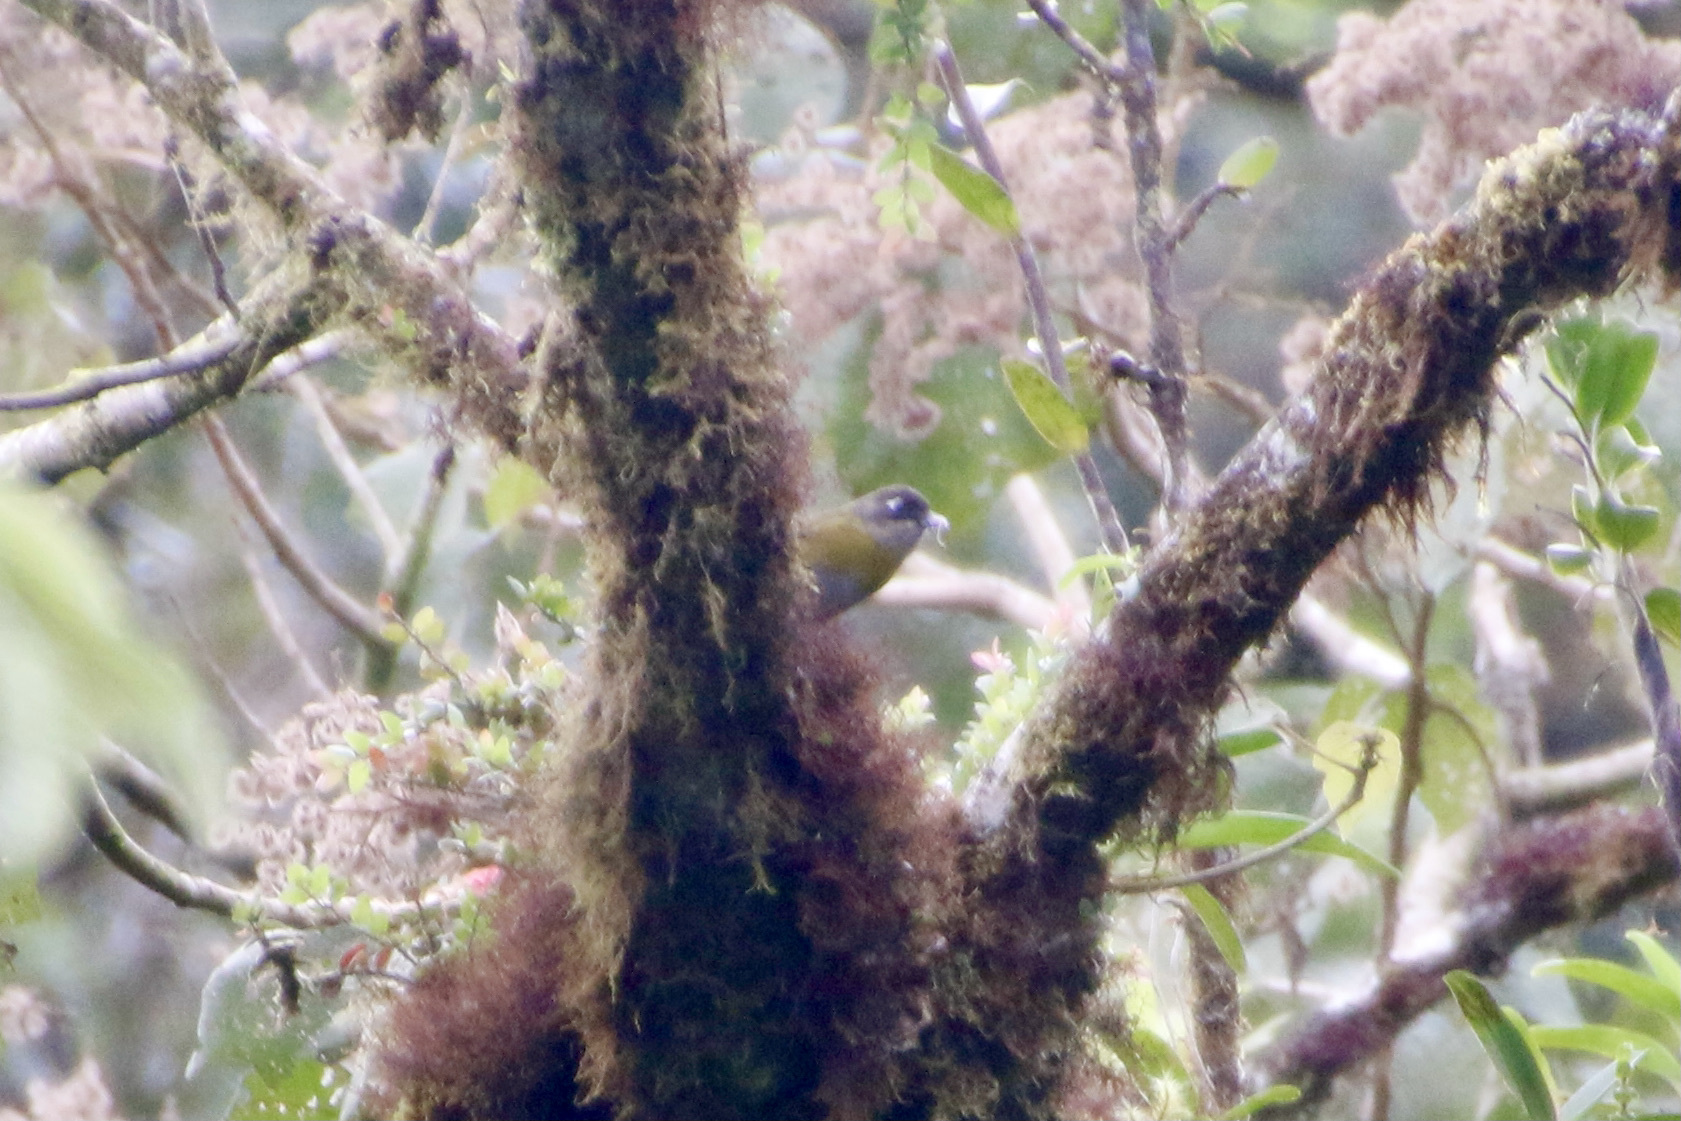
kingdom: Animalia
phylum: Chordata
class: Aves
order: Passeriformes
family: Passerellidae
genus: Chlorospingus
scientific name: Chlorospingus flavopectus
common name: Common chlorospingus
